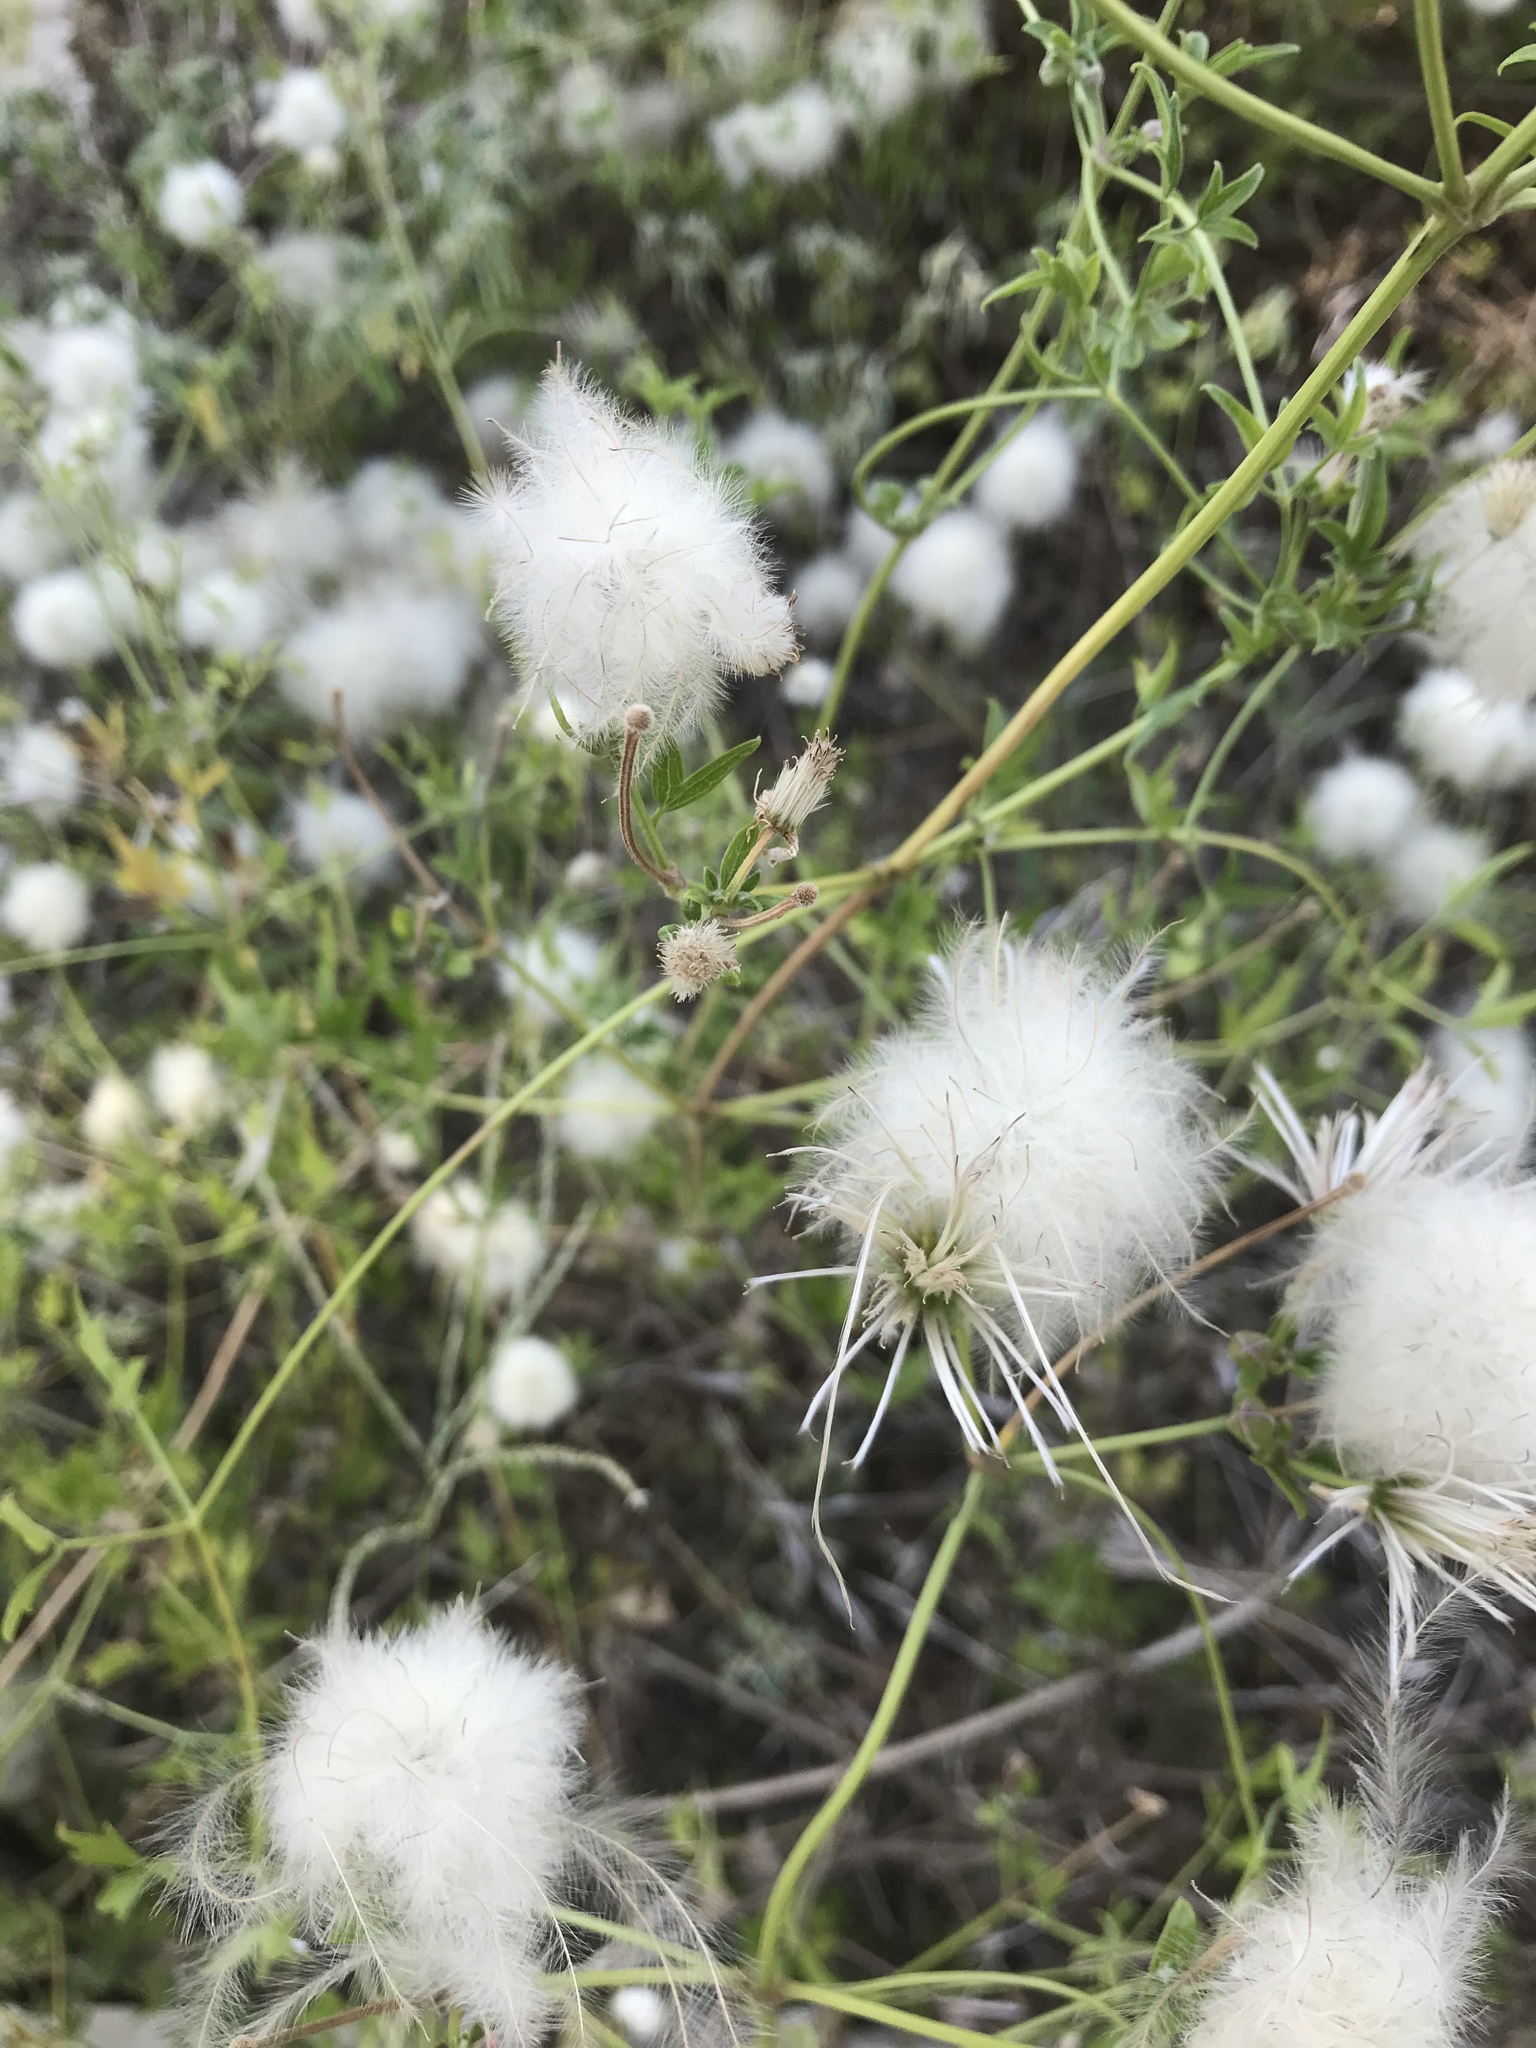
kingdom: Plantae
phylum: Tracheophyta
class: Magnoliopsida
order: Ranunculales
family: Ranunculaceae
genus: Clematis
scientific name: Clematis drummondii
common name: Texas virgin's bower
